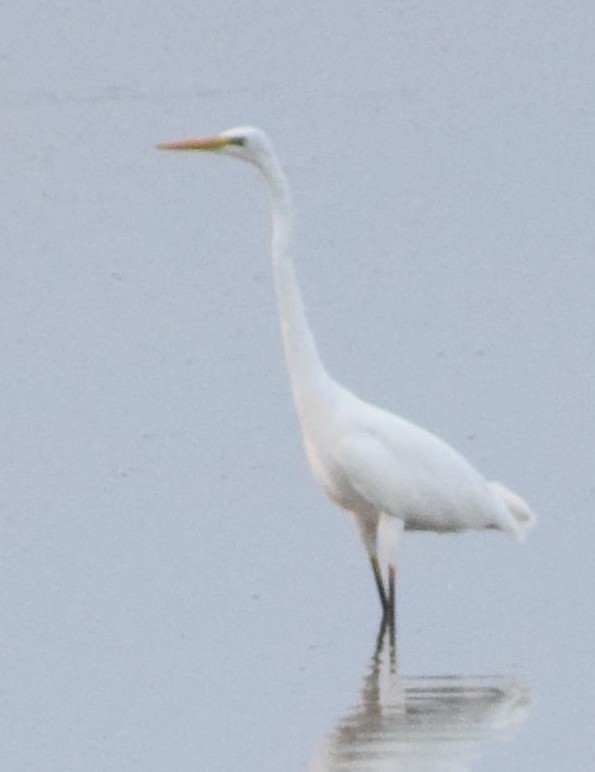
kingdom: Animalia
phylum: Chordata
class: Aves
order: Pelecaniformes
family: Ardeidae
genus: Ardea
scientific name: Ardea alba
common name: Great egret
